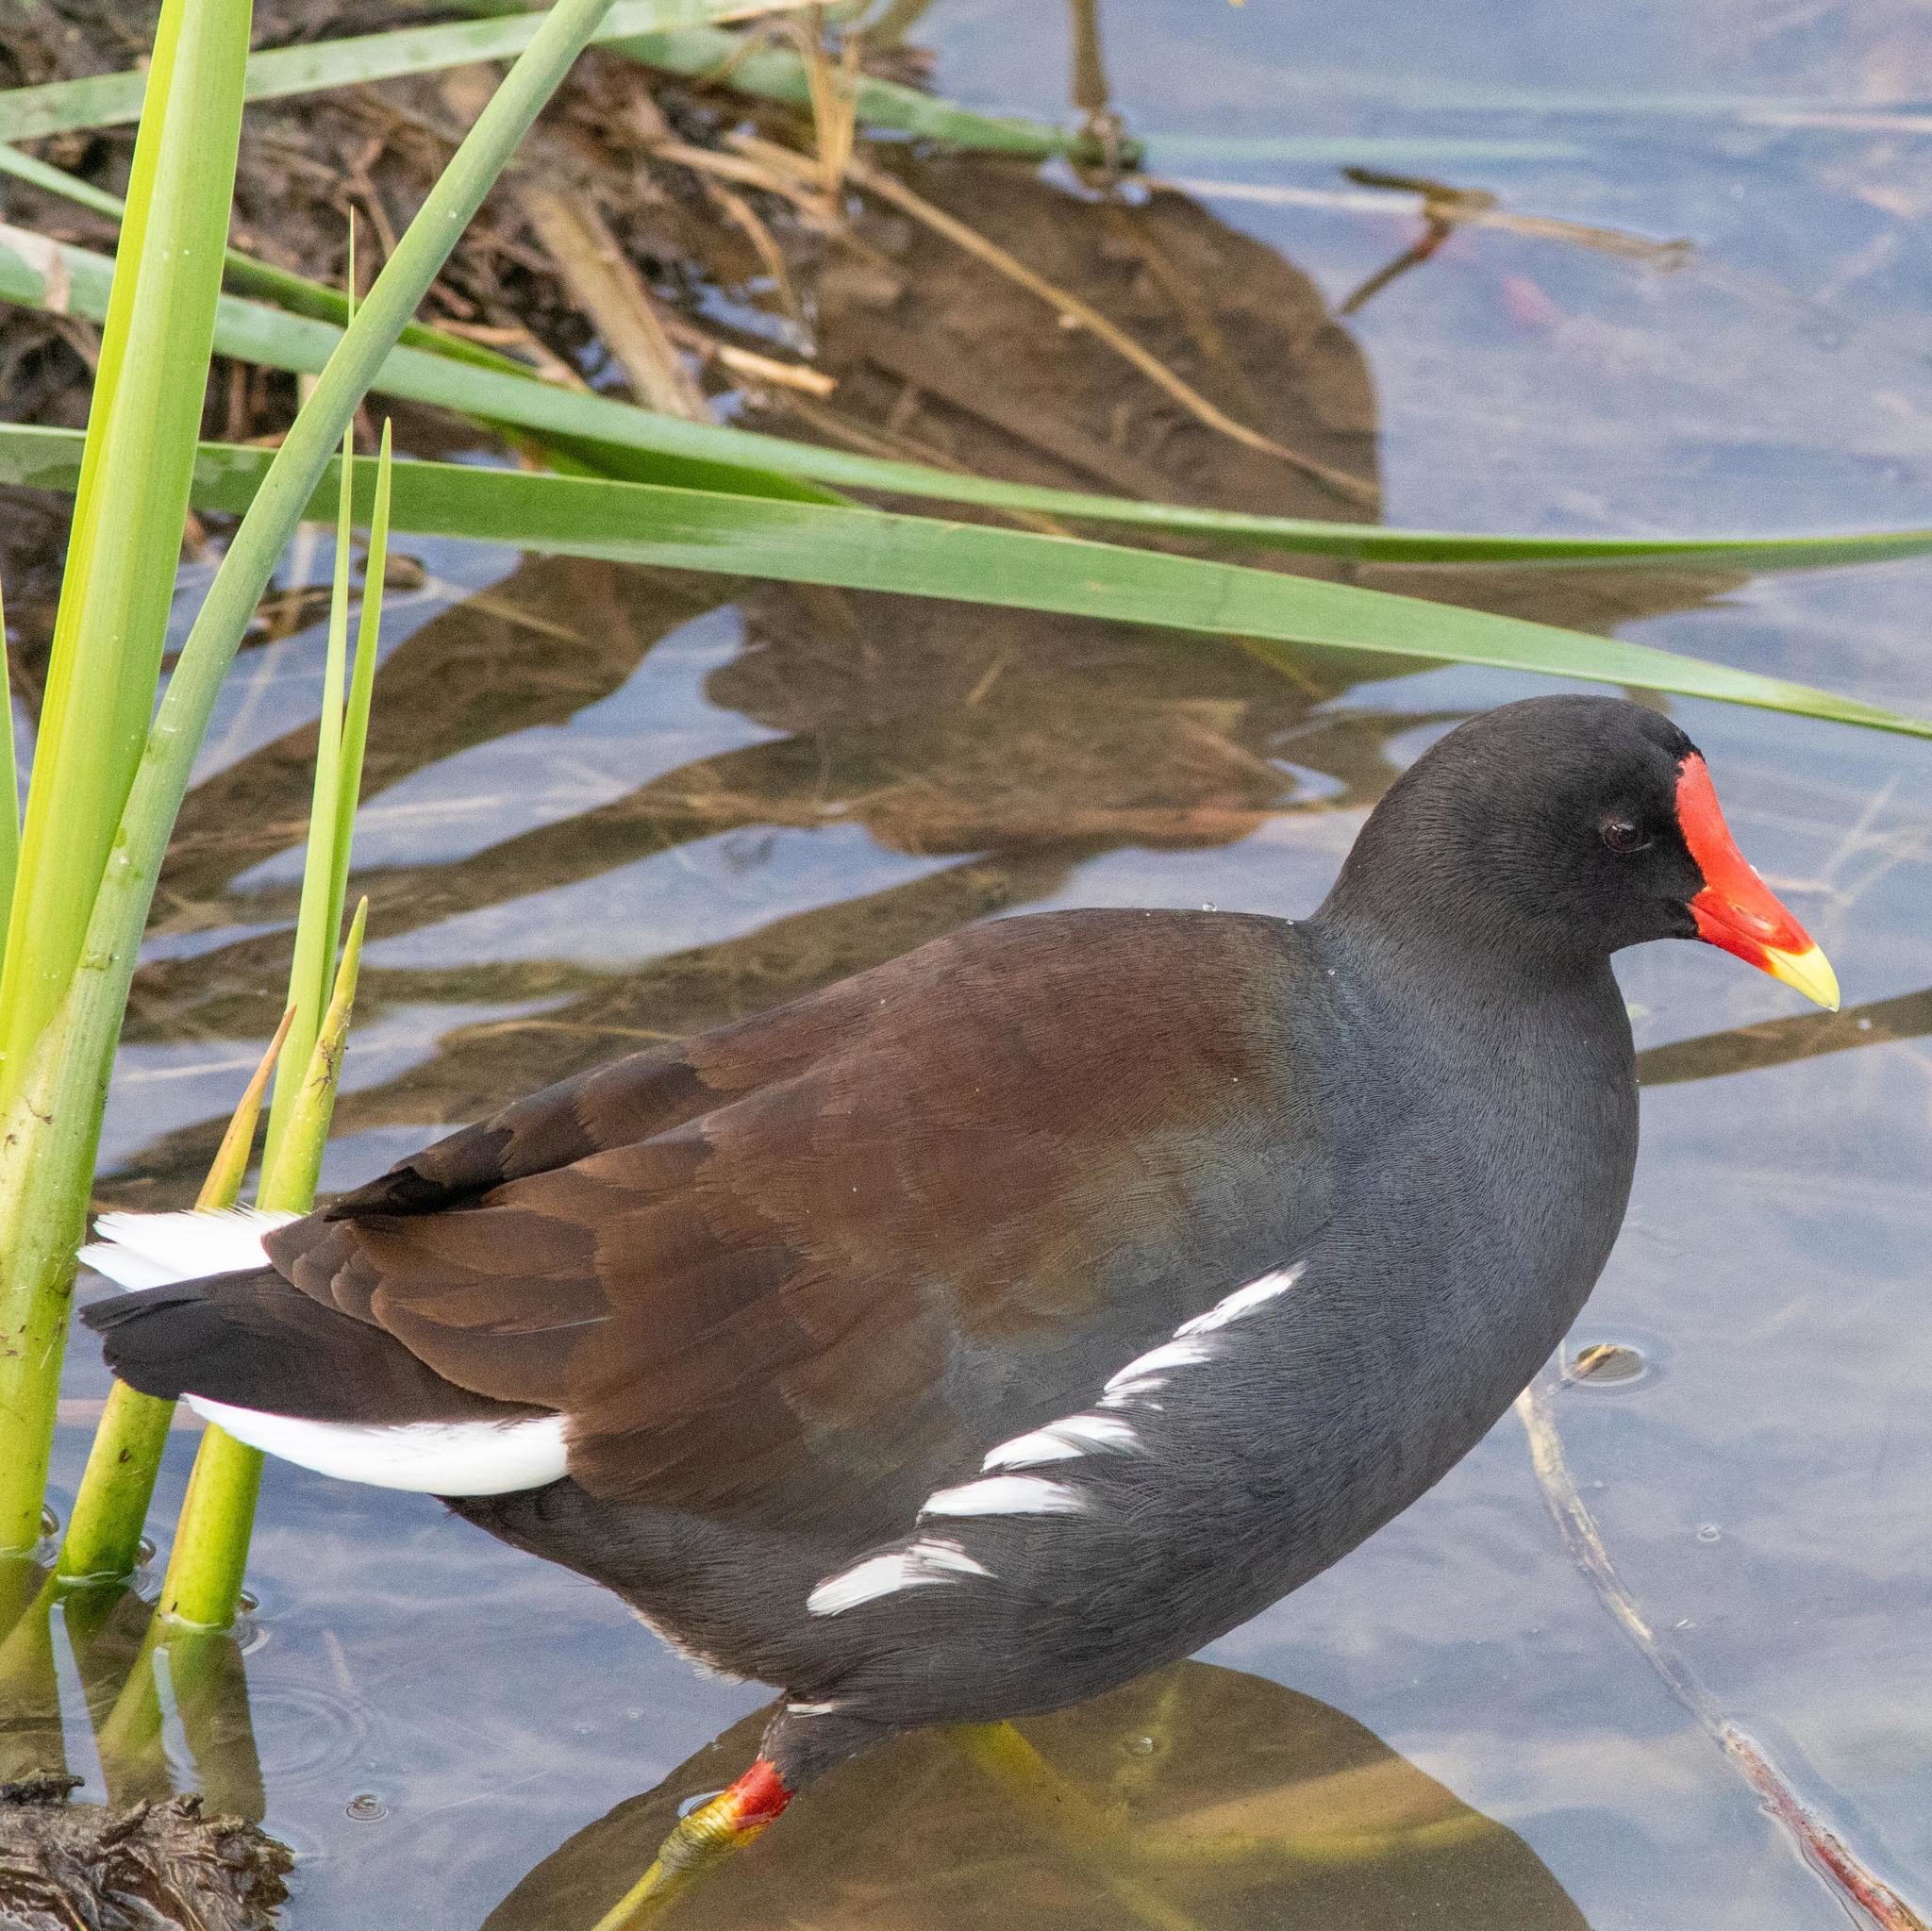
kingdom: Animalia
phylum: Chordata
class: Aves
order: Gruiformes
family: Rallidae
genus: Gallinula
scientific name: Gallinula chloropus
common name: Common moorhen
